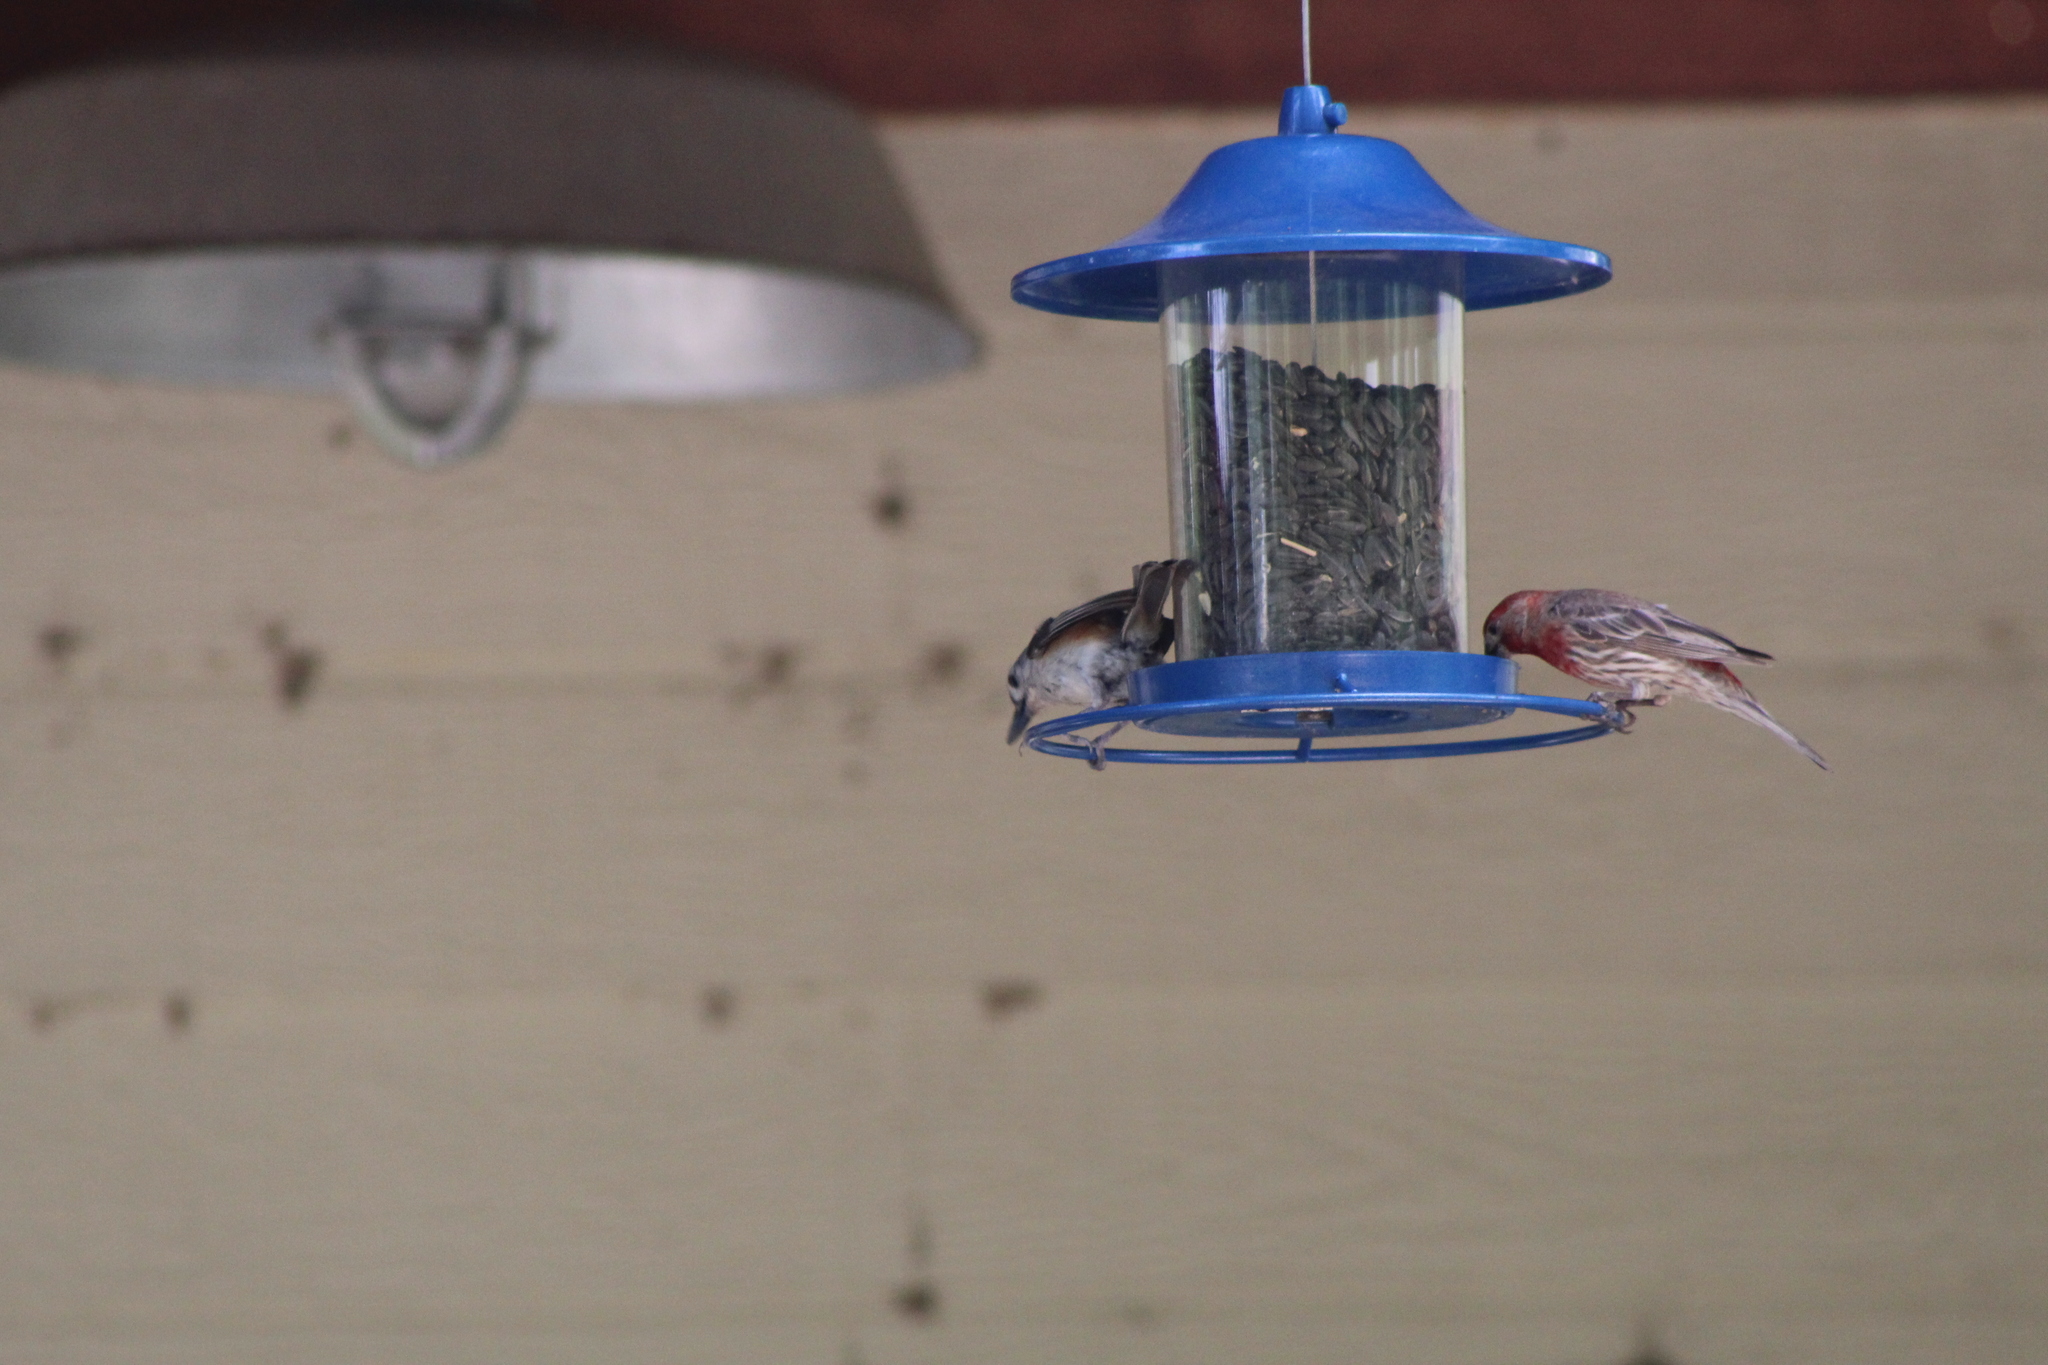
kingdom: Animalia
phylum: Chordata
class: Aves
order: Passeriformes
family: Fringillidae
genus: Haemorhous
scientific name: Haemorhous mexicanus
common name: House finch
